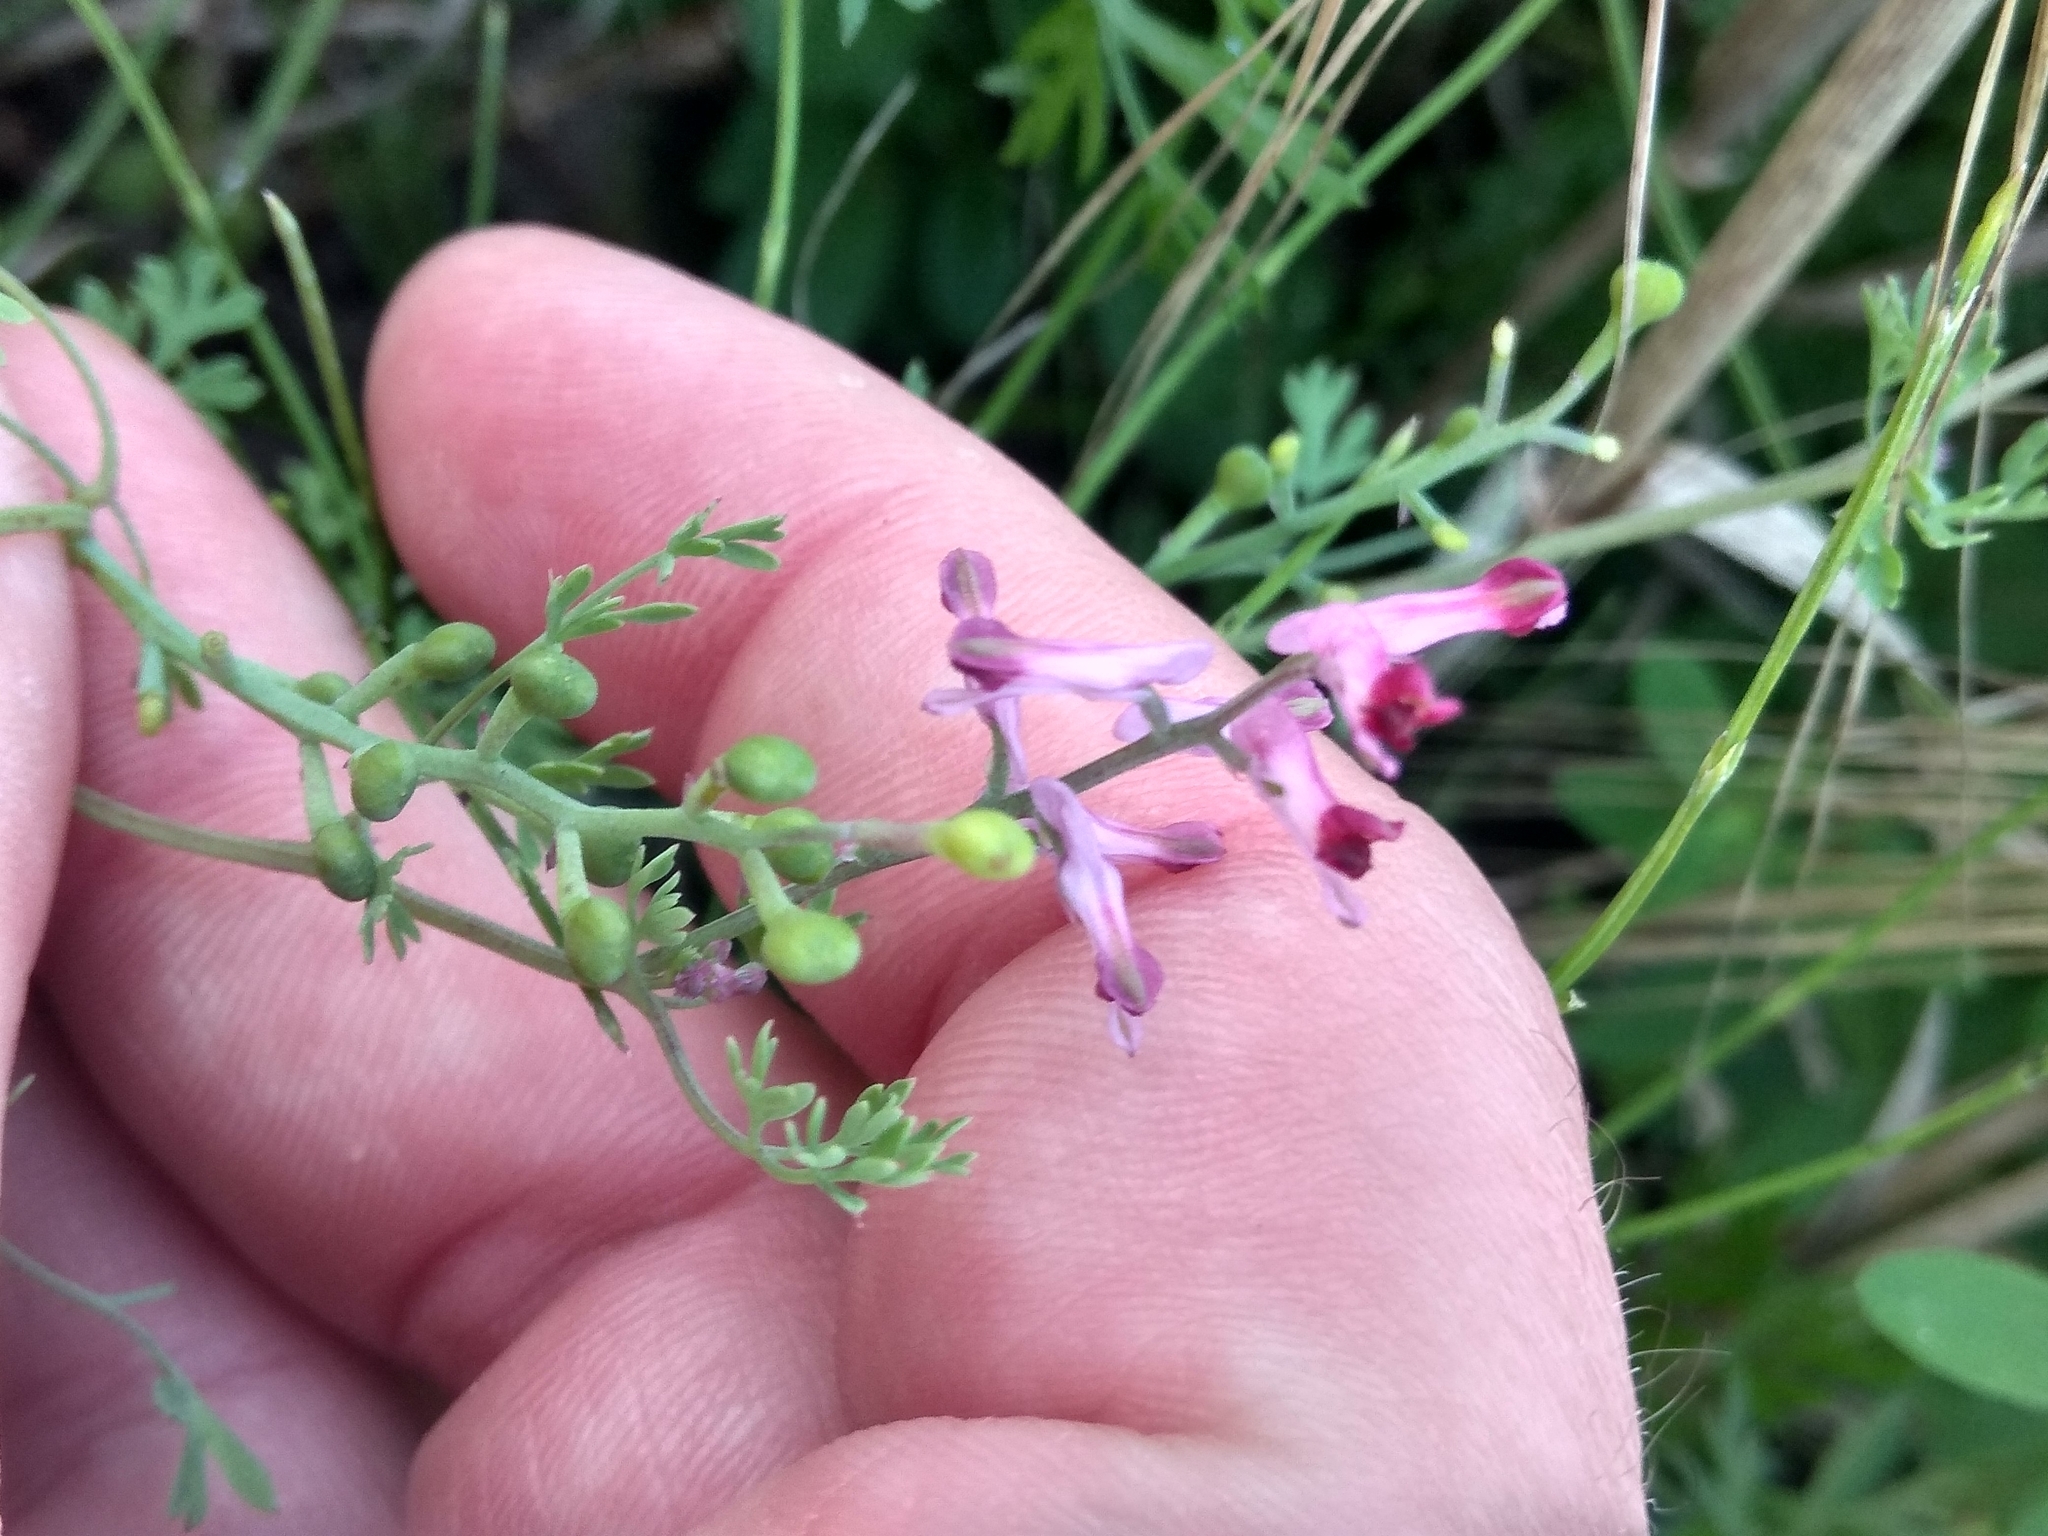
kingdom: Plantae
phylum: Tracheophyta
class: Magnoliopsida
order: Ranunculales
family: Papaveraceae
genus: Fumaria
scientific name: Fumaria officinalis
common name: Common fumitory
